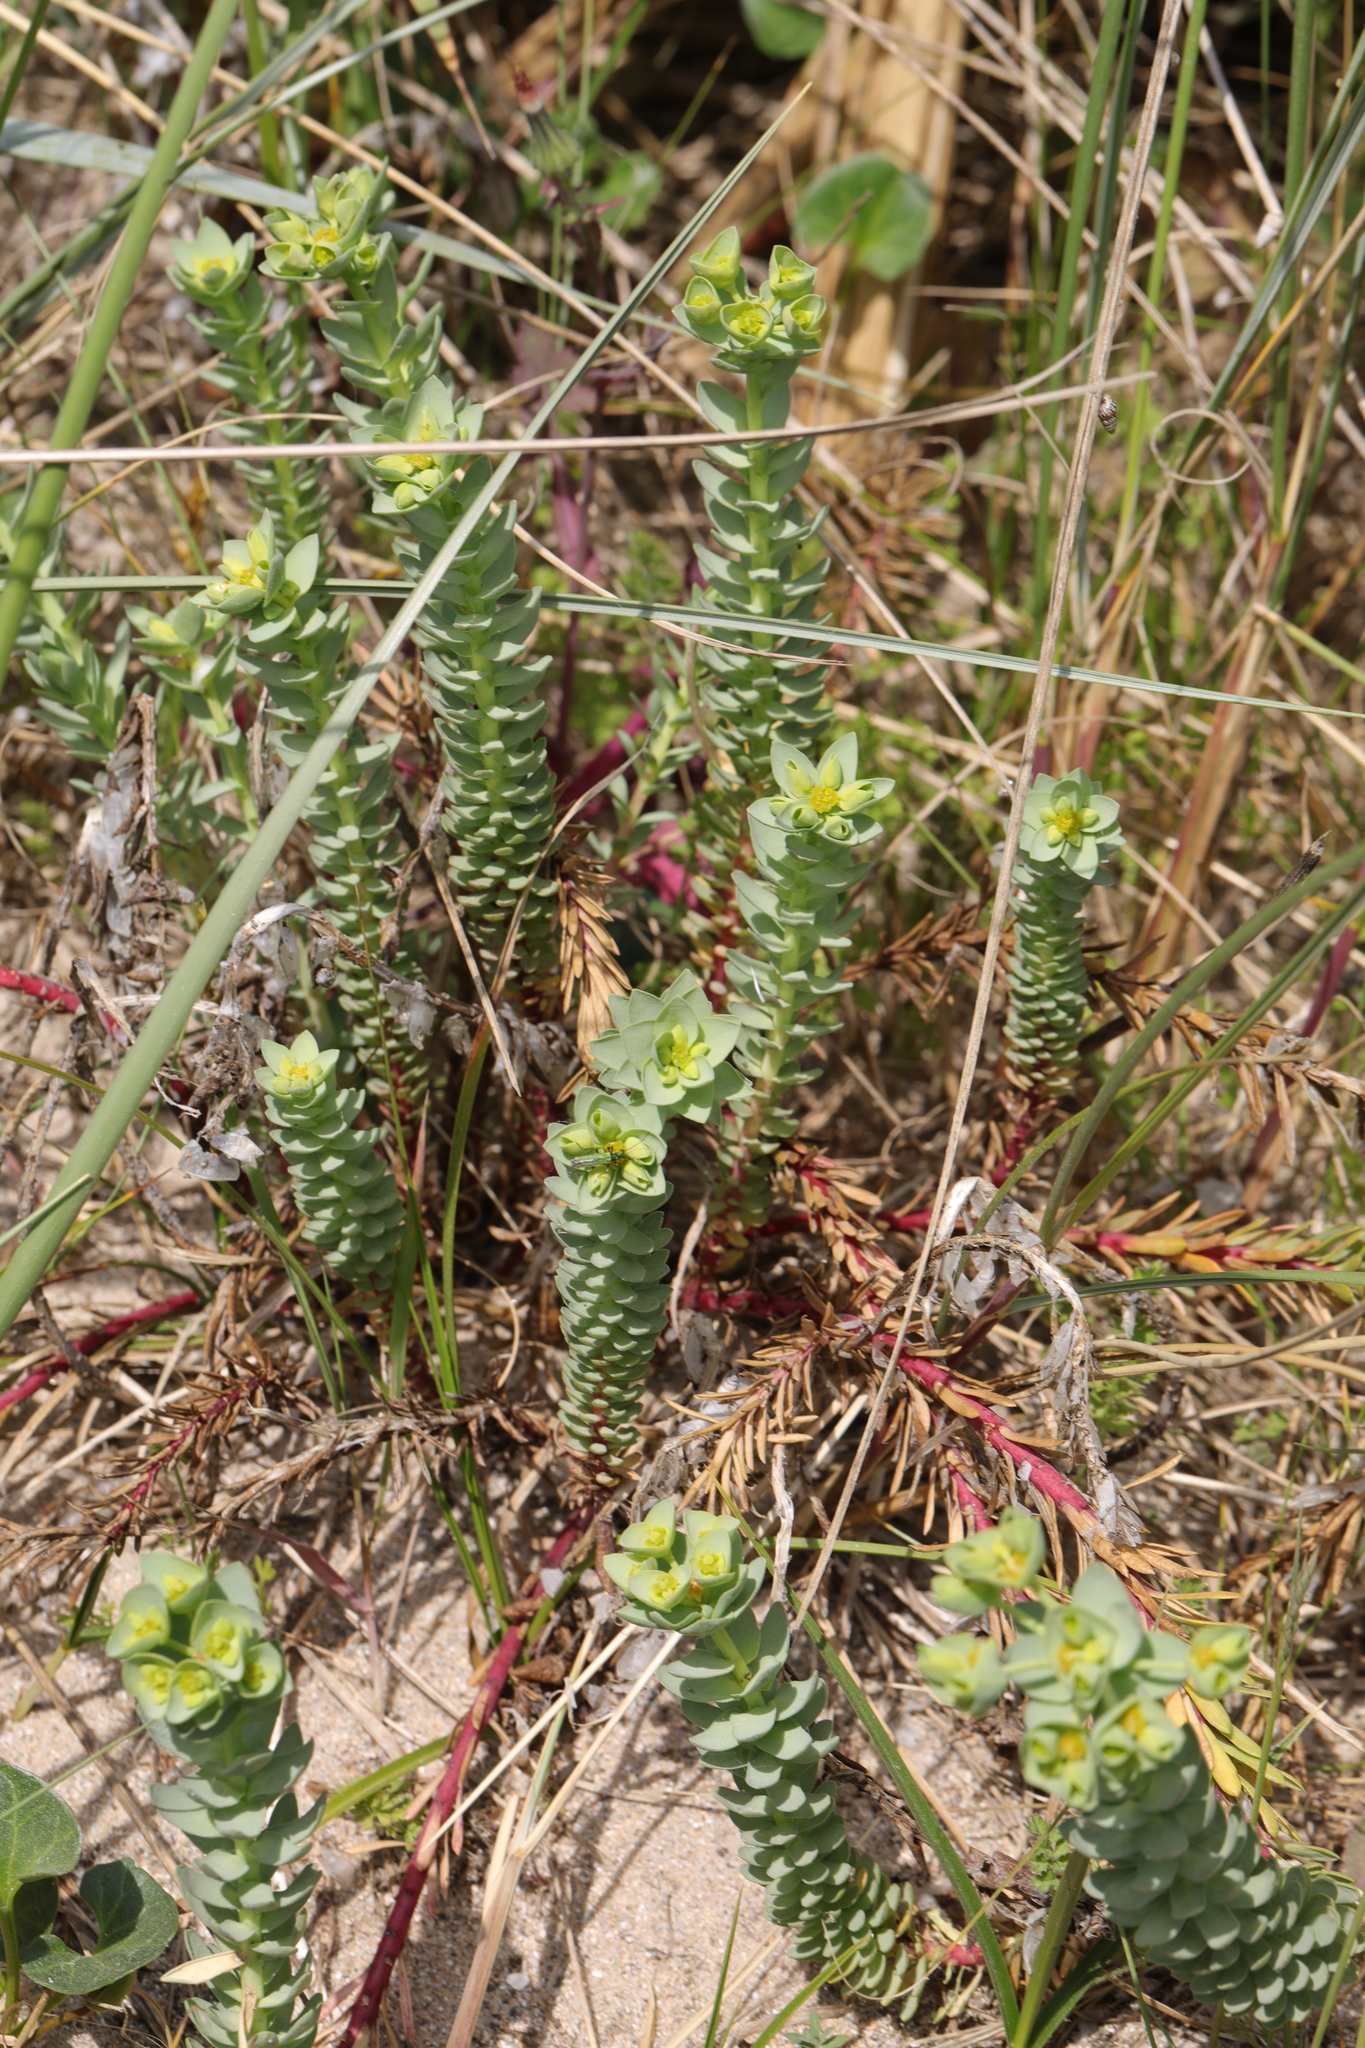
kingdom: Plantae
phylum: Tracheophyta
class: Magnoliopsida
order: Malpighiales
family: Euphorbiaceae
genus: Euphorbia
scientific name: Euphorbia paralias
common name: Sea spurge
